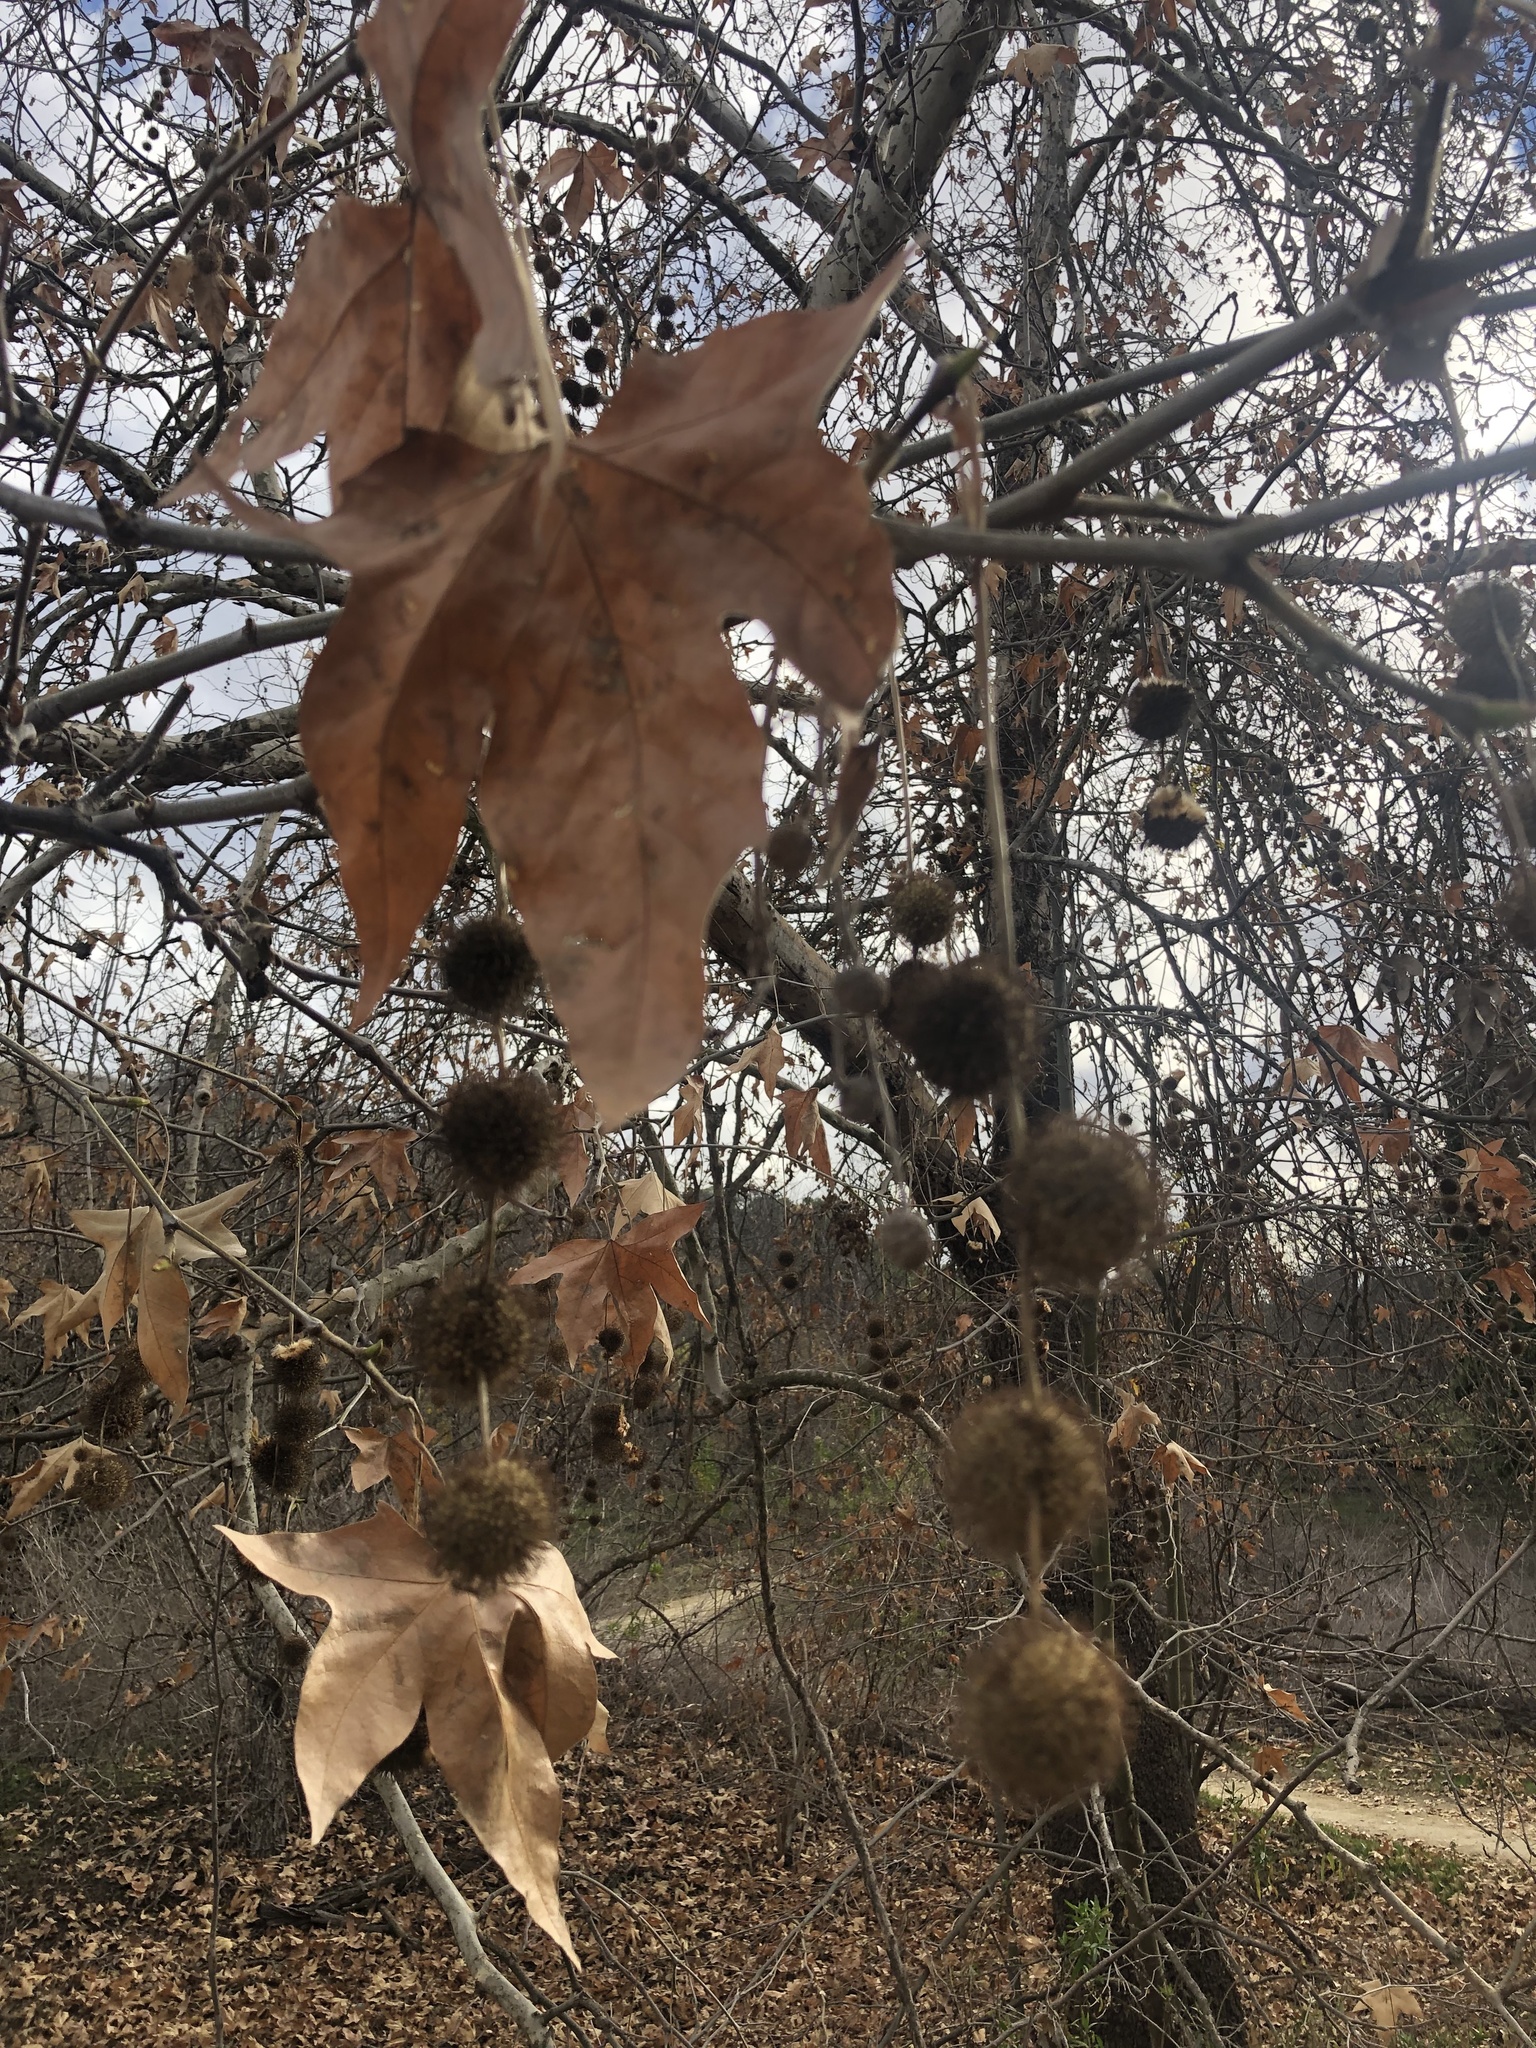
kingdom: Plantae
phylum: Tracheophyta
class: Magnoliopsida
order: Proteales
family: Platanaceae
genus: Platanus
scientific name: Platanus racemosa
